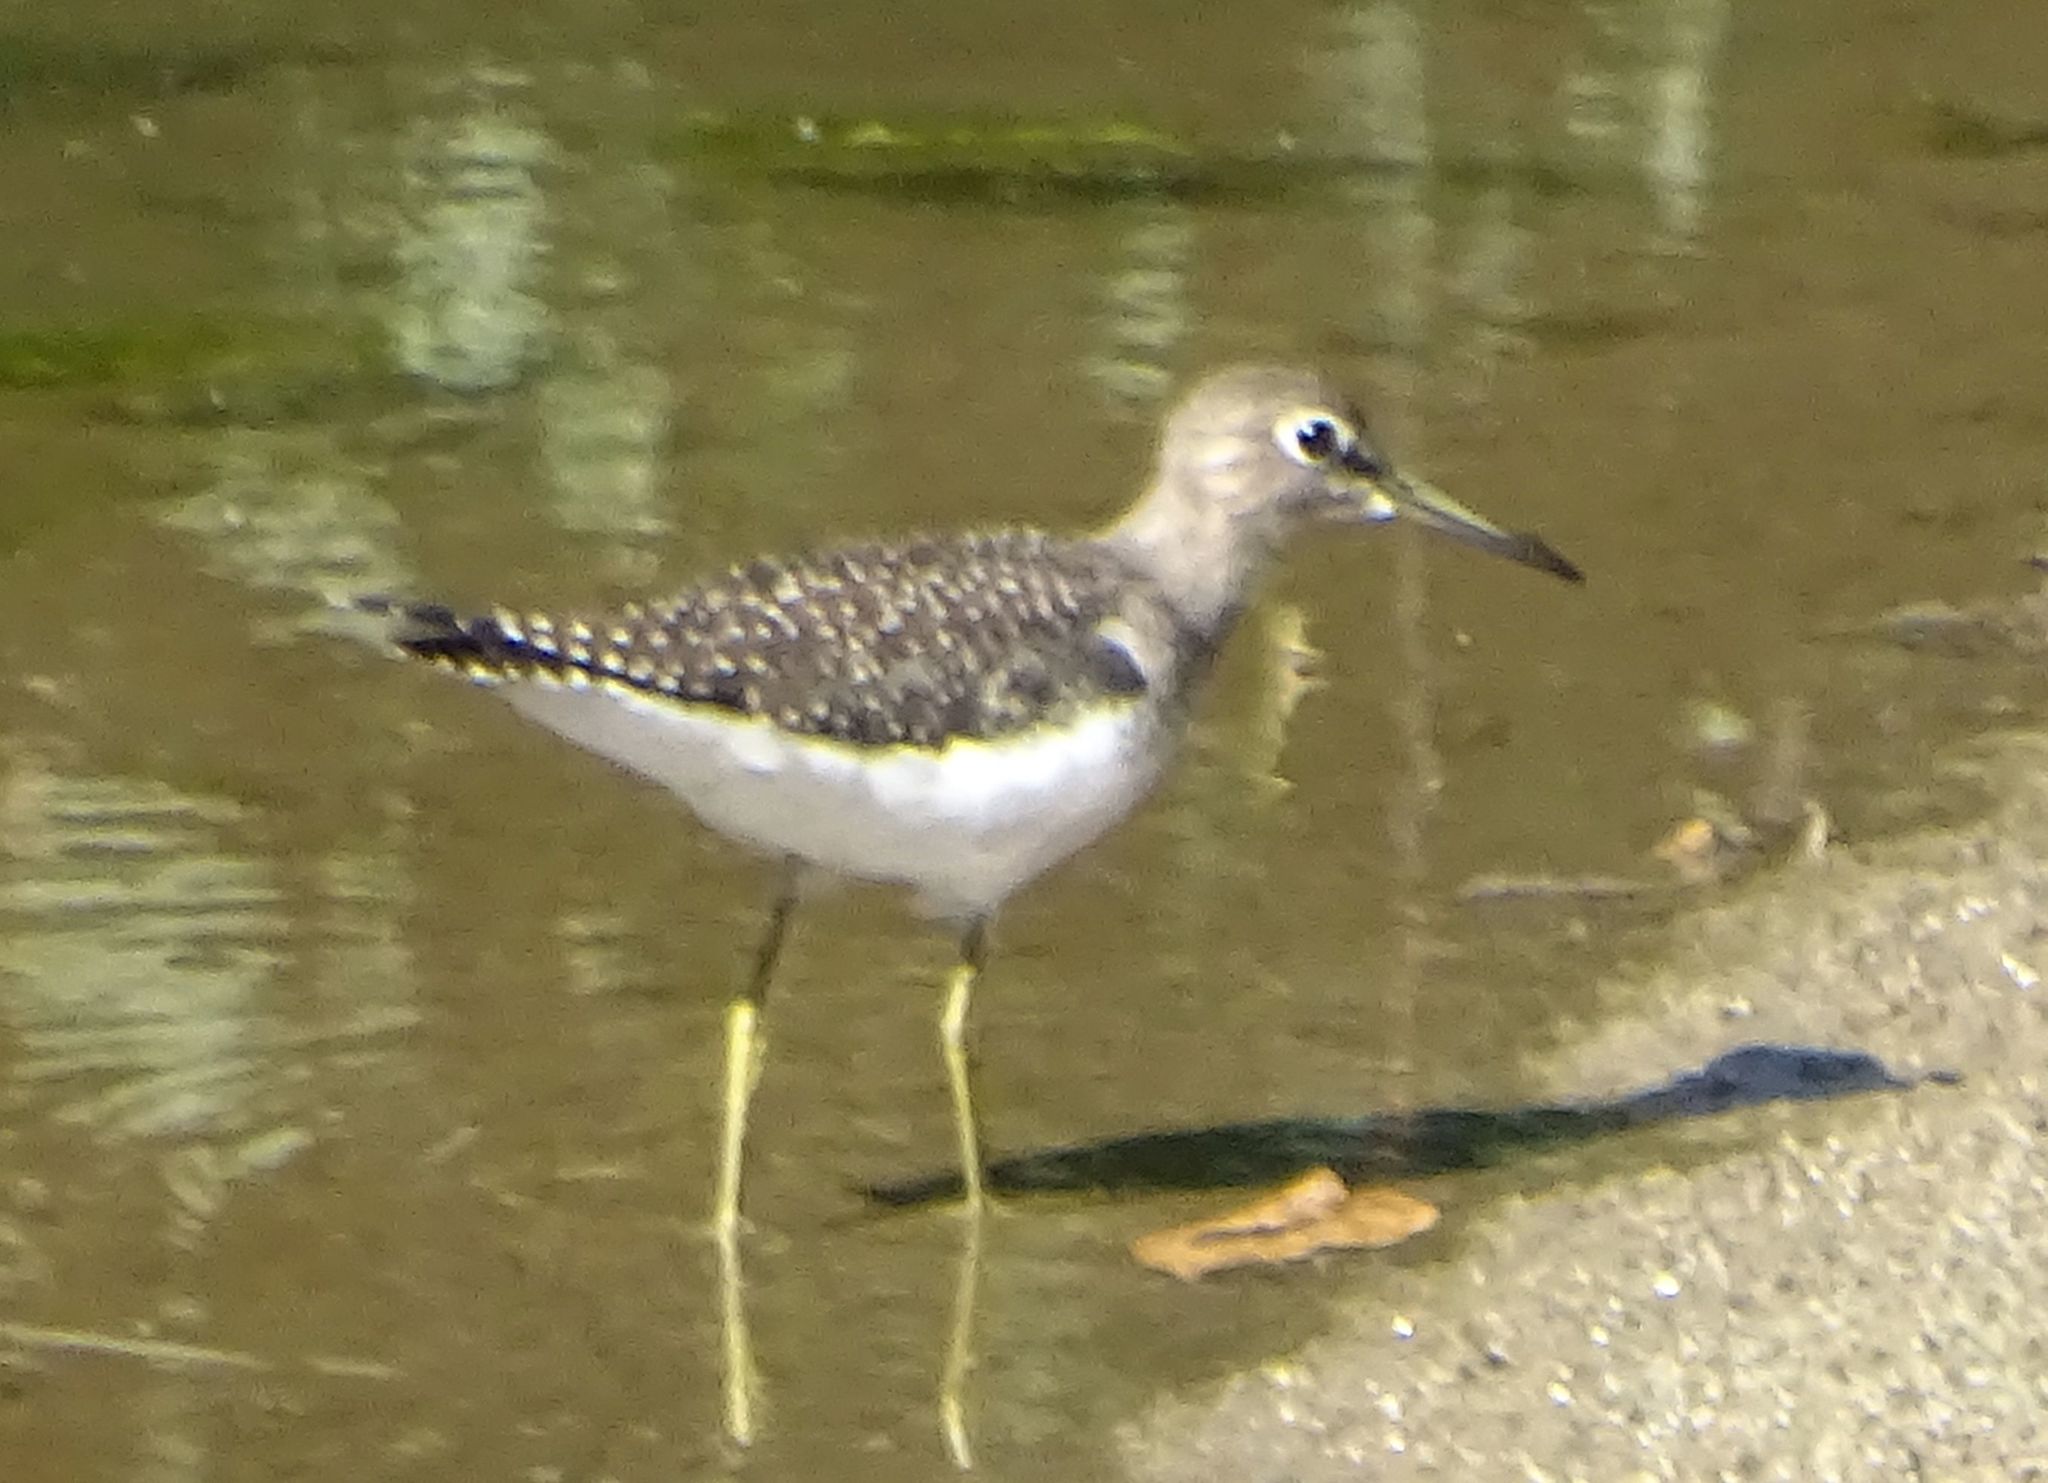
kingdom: Animalia
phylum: Chordata
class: Aves
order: Charadriiformes
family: Scolopacidae
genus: Tringa
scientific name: Tringa solitaria
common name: Solitary sandpiper
